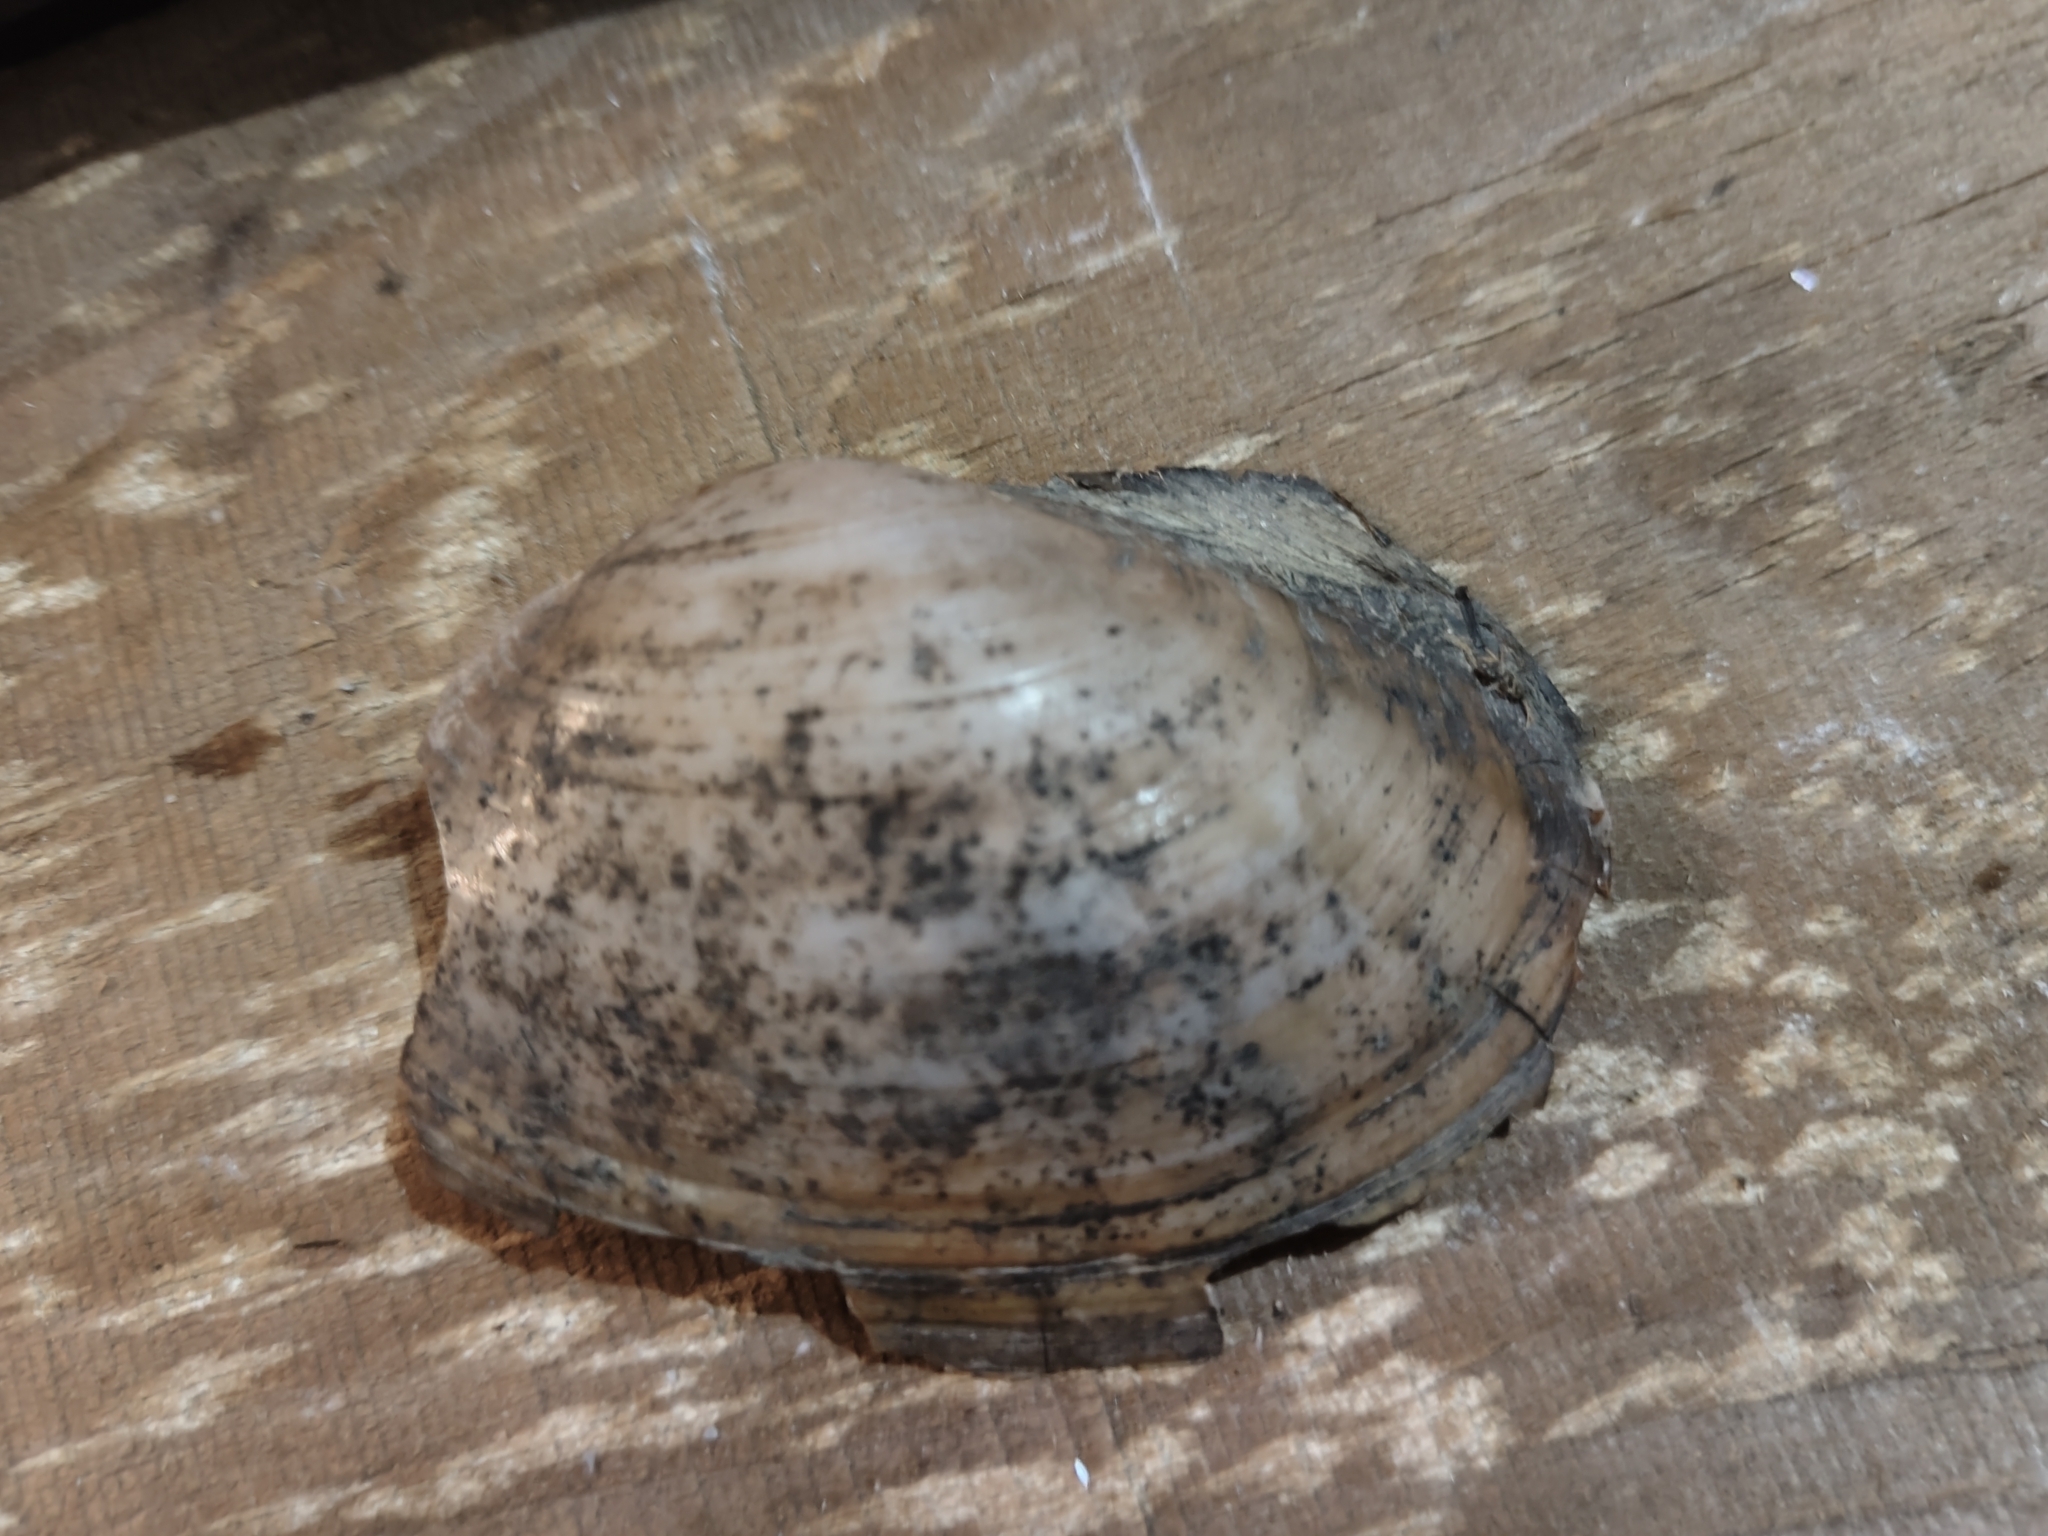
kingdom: Animalia
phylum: Mollusca
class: Bivalvia
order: Unionida
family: Unionidae
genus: Pyganodon
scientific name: Pyganodon grandis
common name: Giant floater
